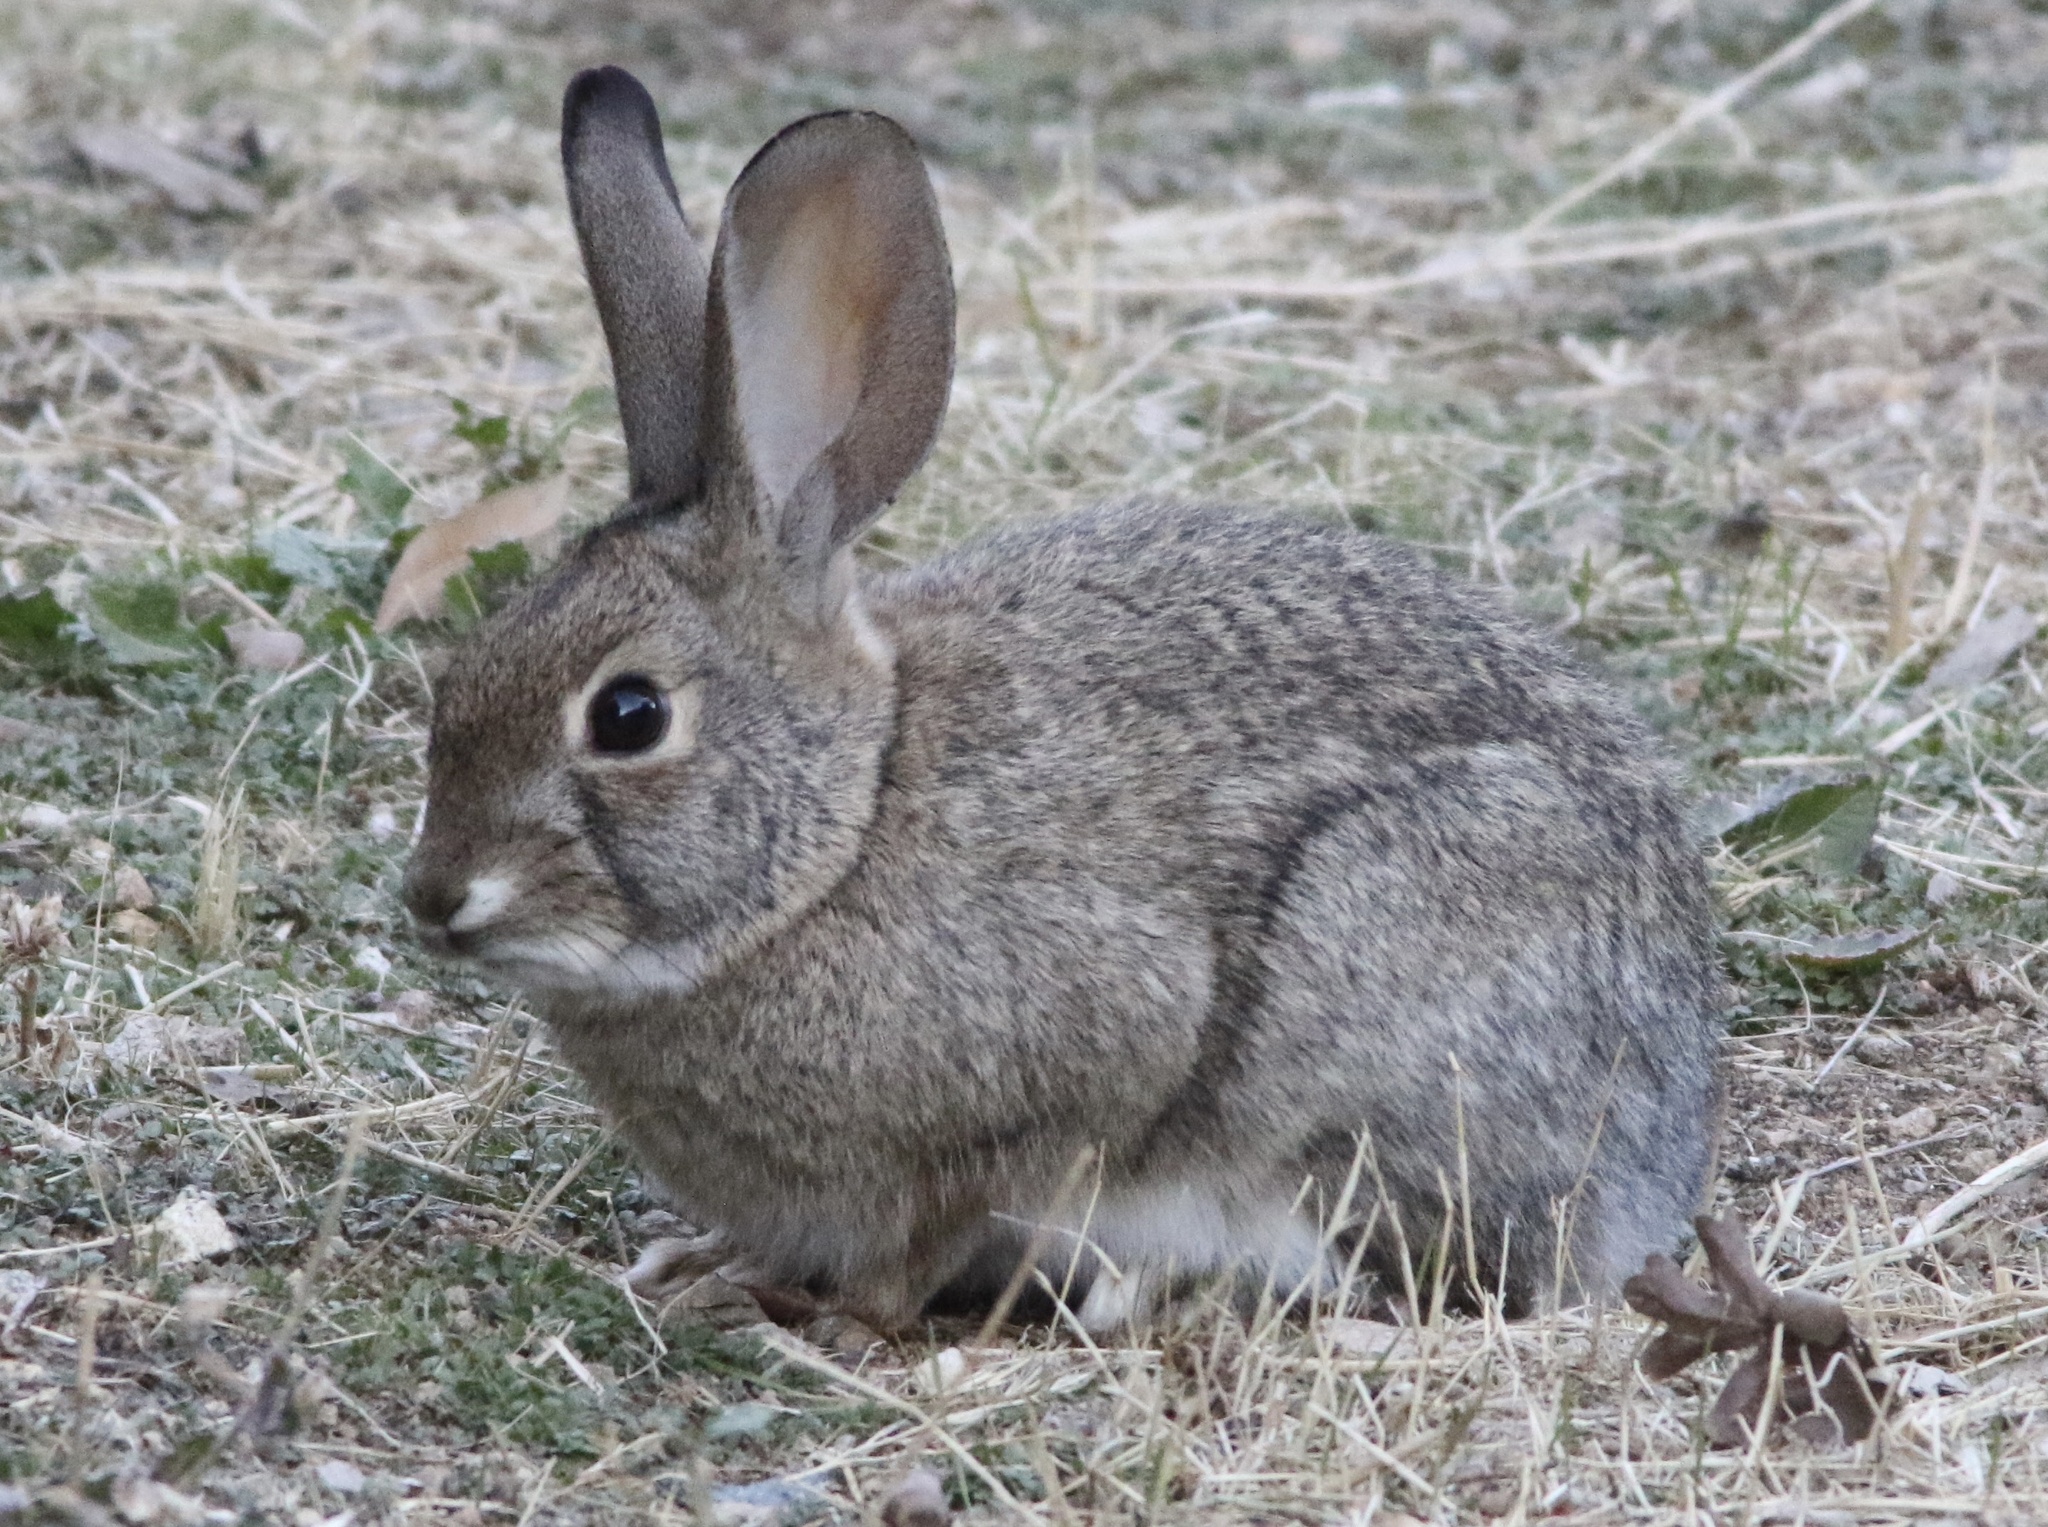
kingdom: Animalia
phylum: Chordata
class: Mammalia
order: Lagomorpha
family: Leporidae
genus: Sylvilagus
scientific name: Sylvilagus audubonii
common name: Desert cottontail
